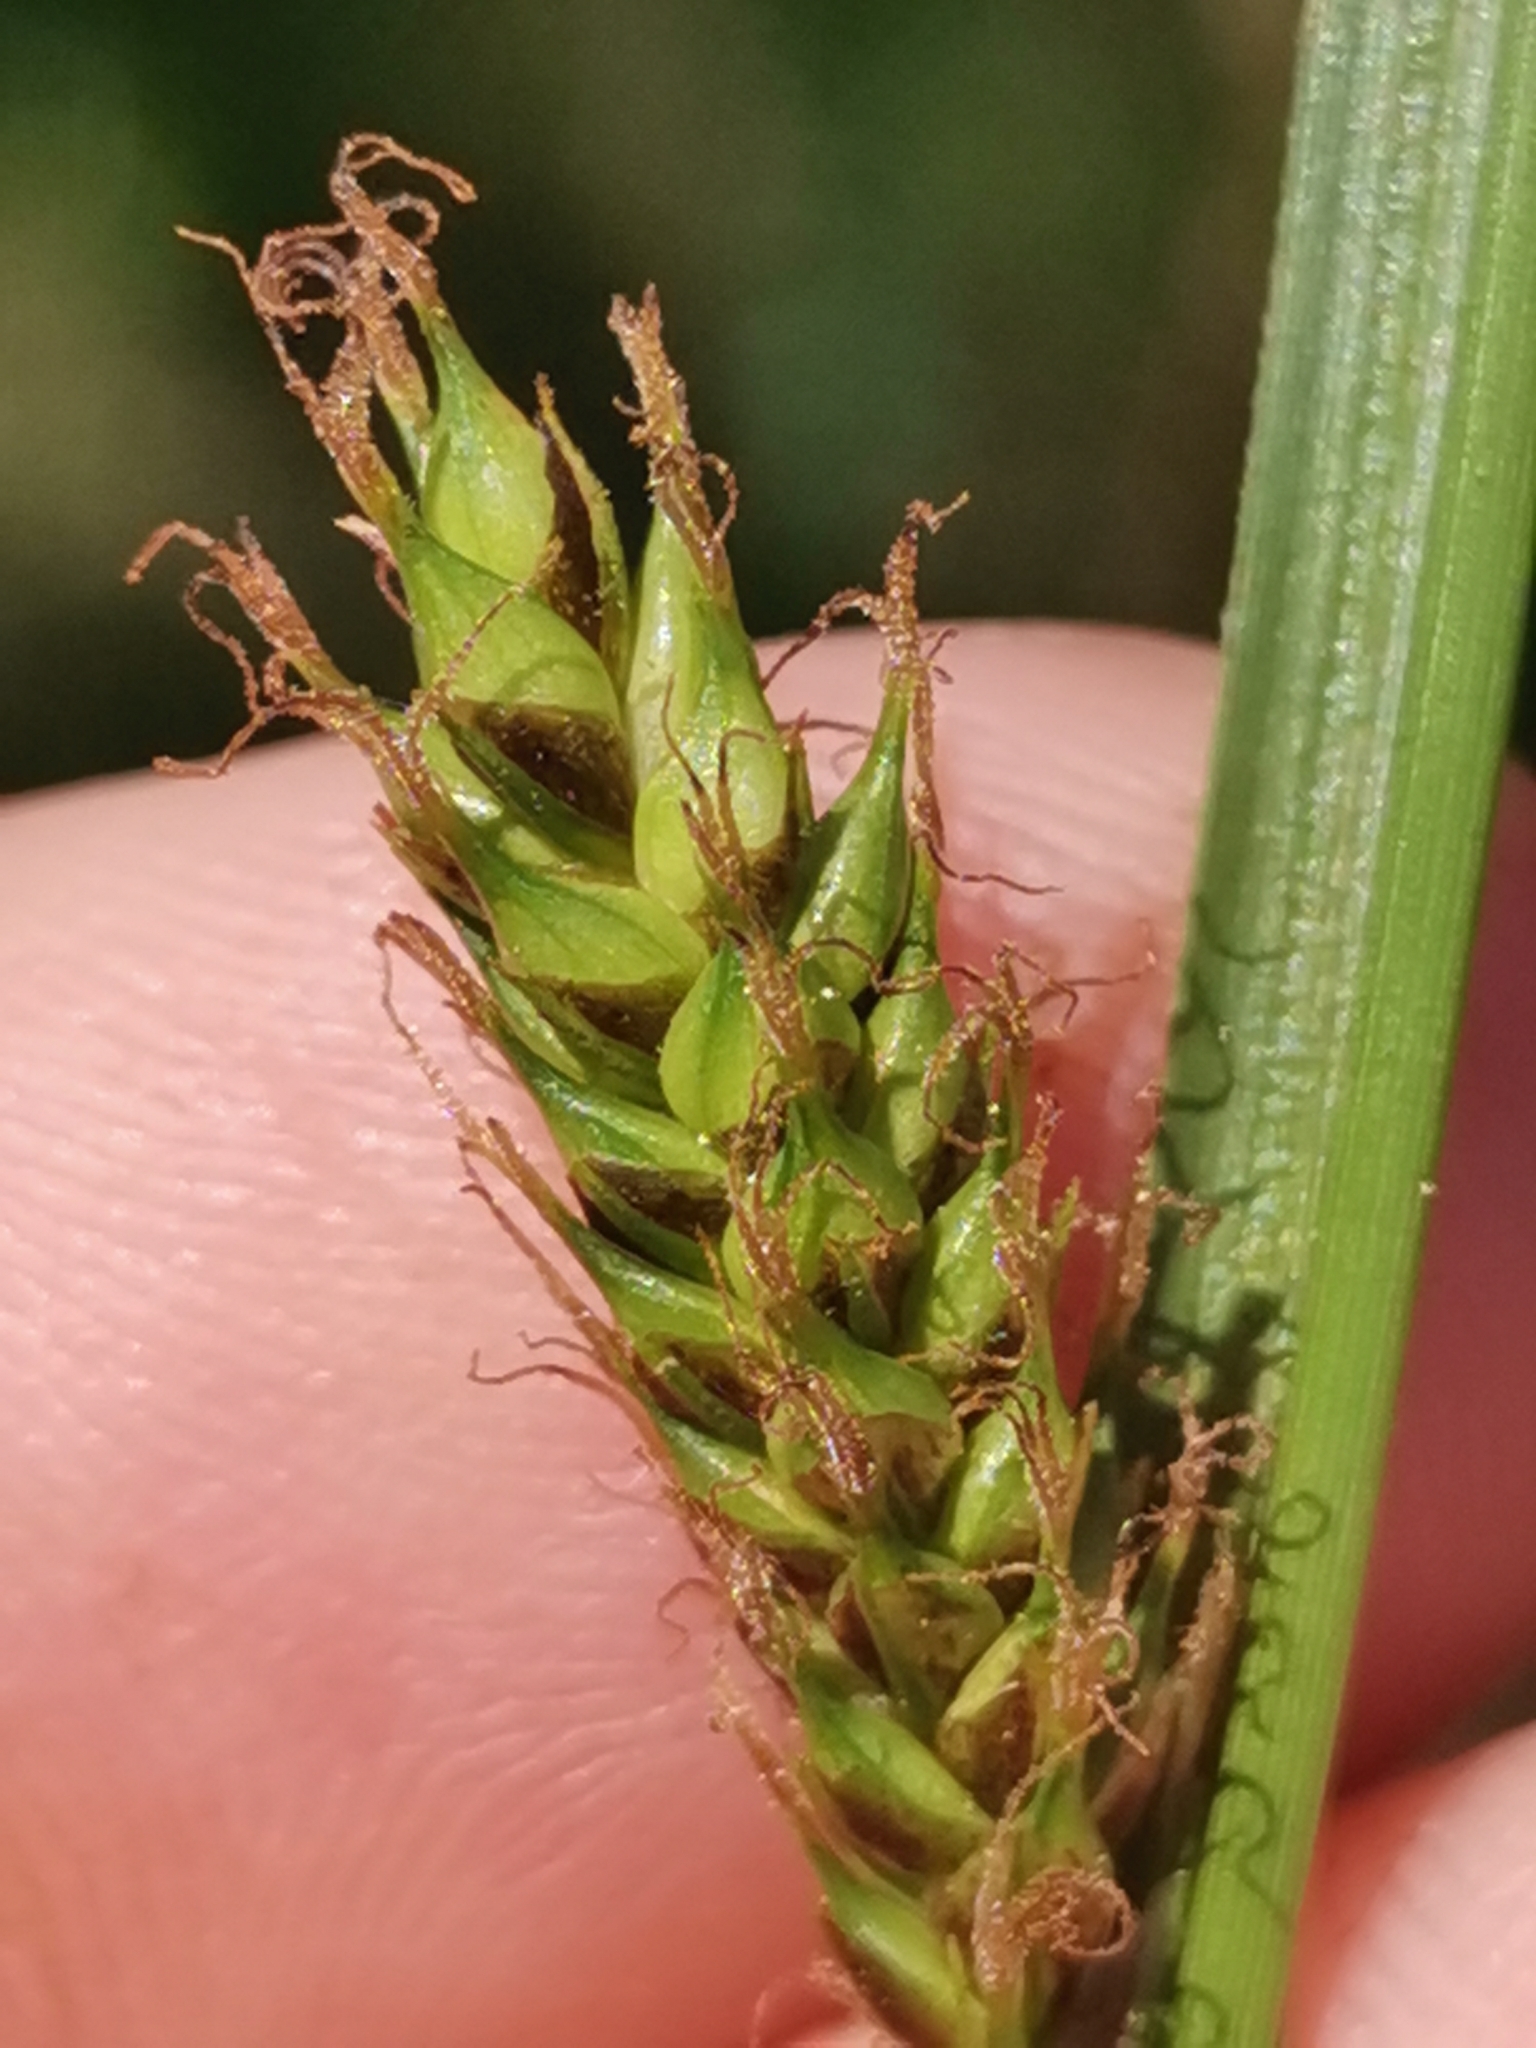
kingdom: Plantae
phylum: Tracheophyta
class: Liliopsida
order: Poales
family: Cyperaceae
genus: Carex
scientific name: Carex distans
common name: Distant sedge
